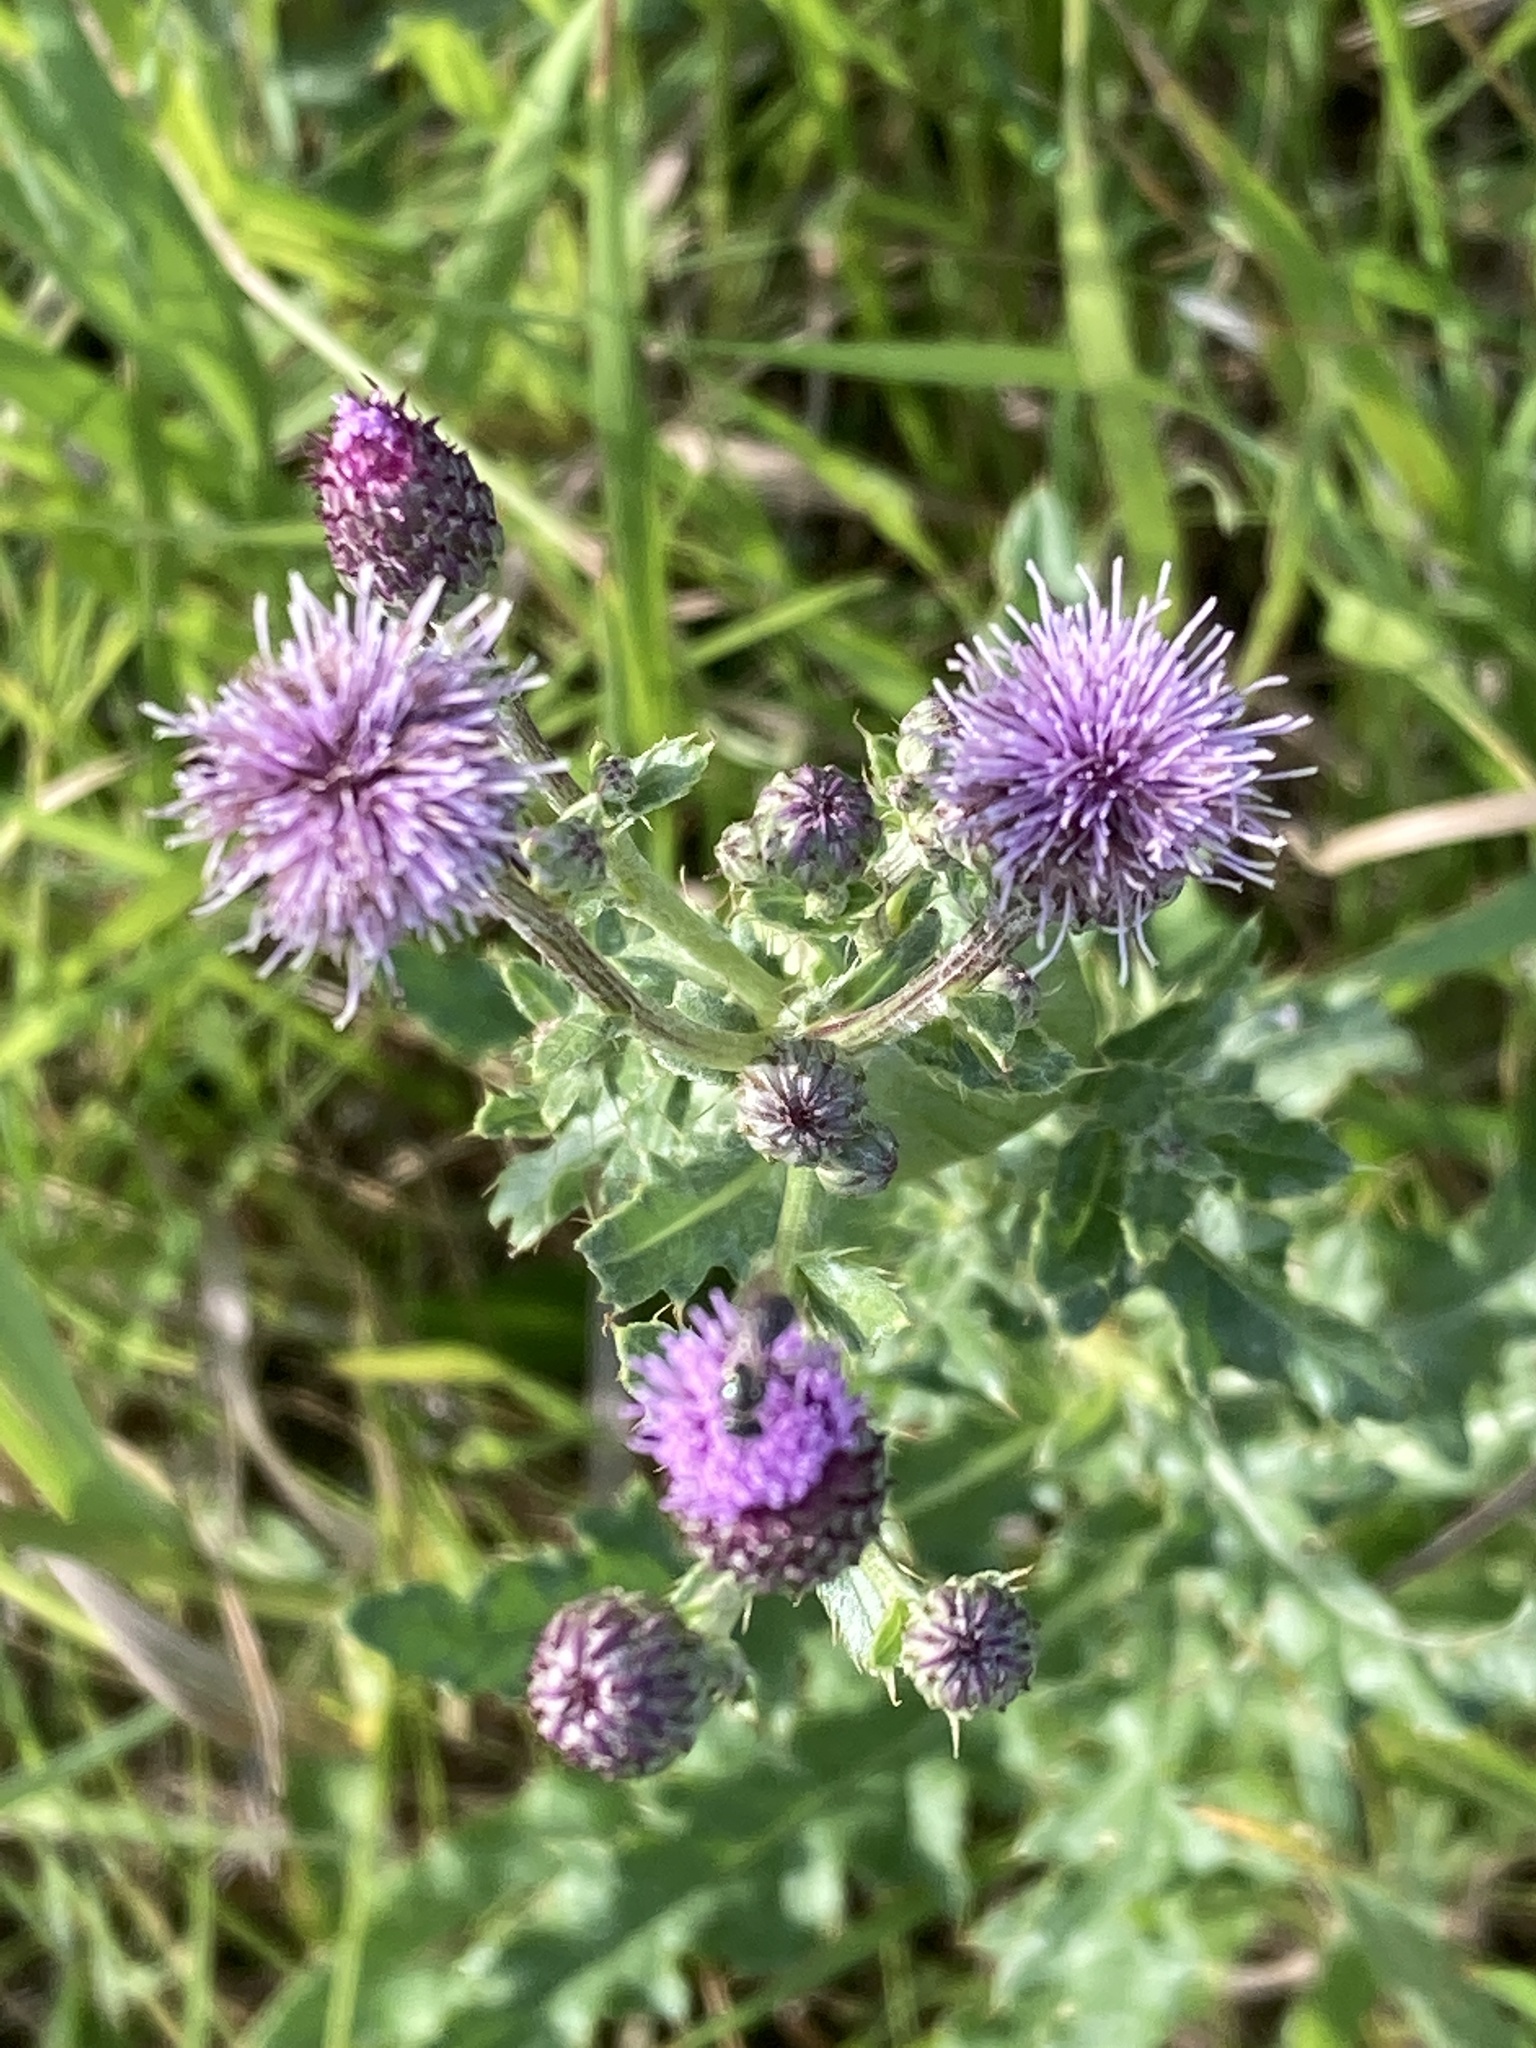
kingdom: Plantae
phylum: Tracheophyta
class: Magnoliopsida
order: Asterales
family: Asteraceae
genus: Cirsium
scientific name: Cirsium arvense
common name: Creeping thistle
